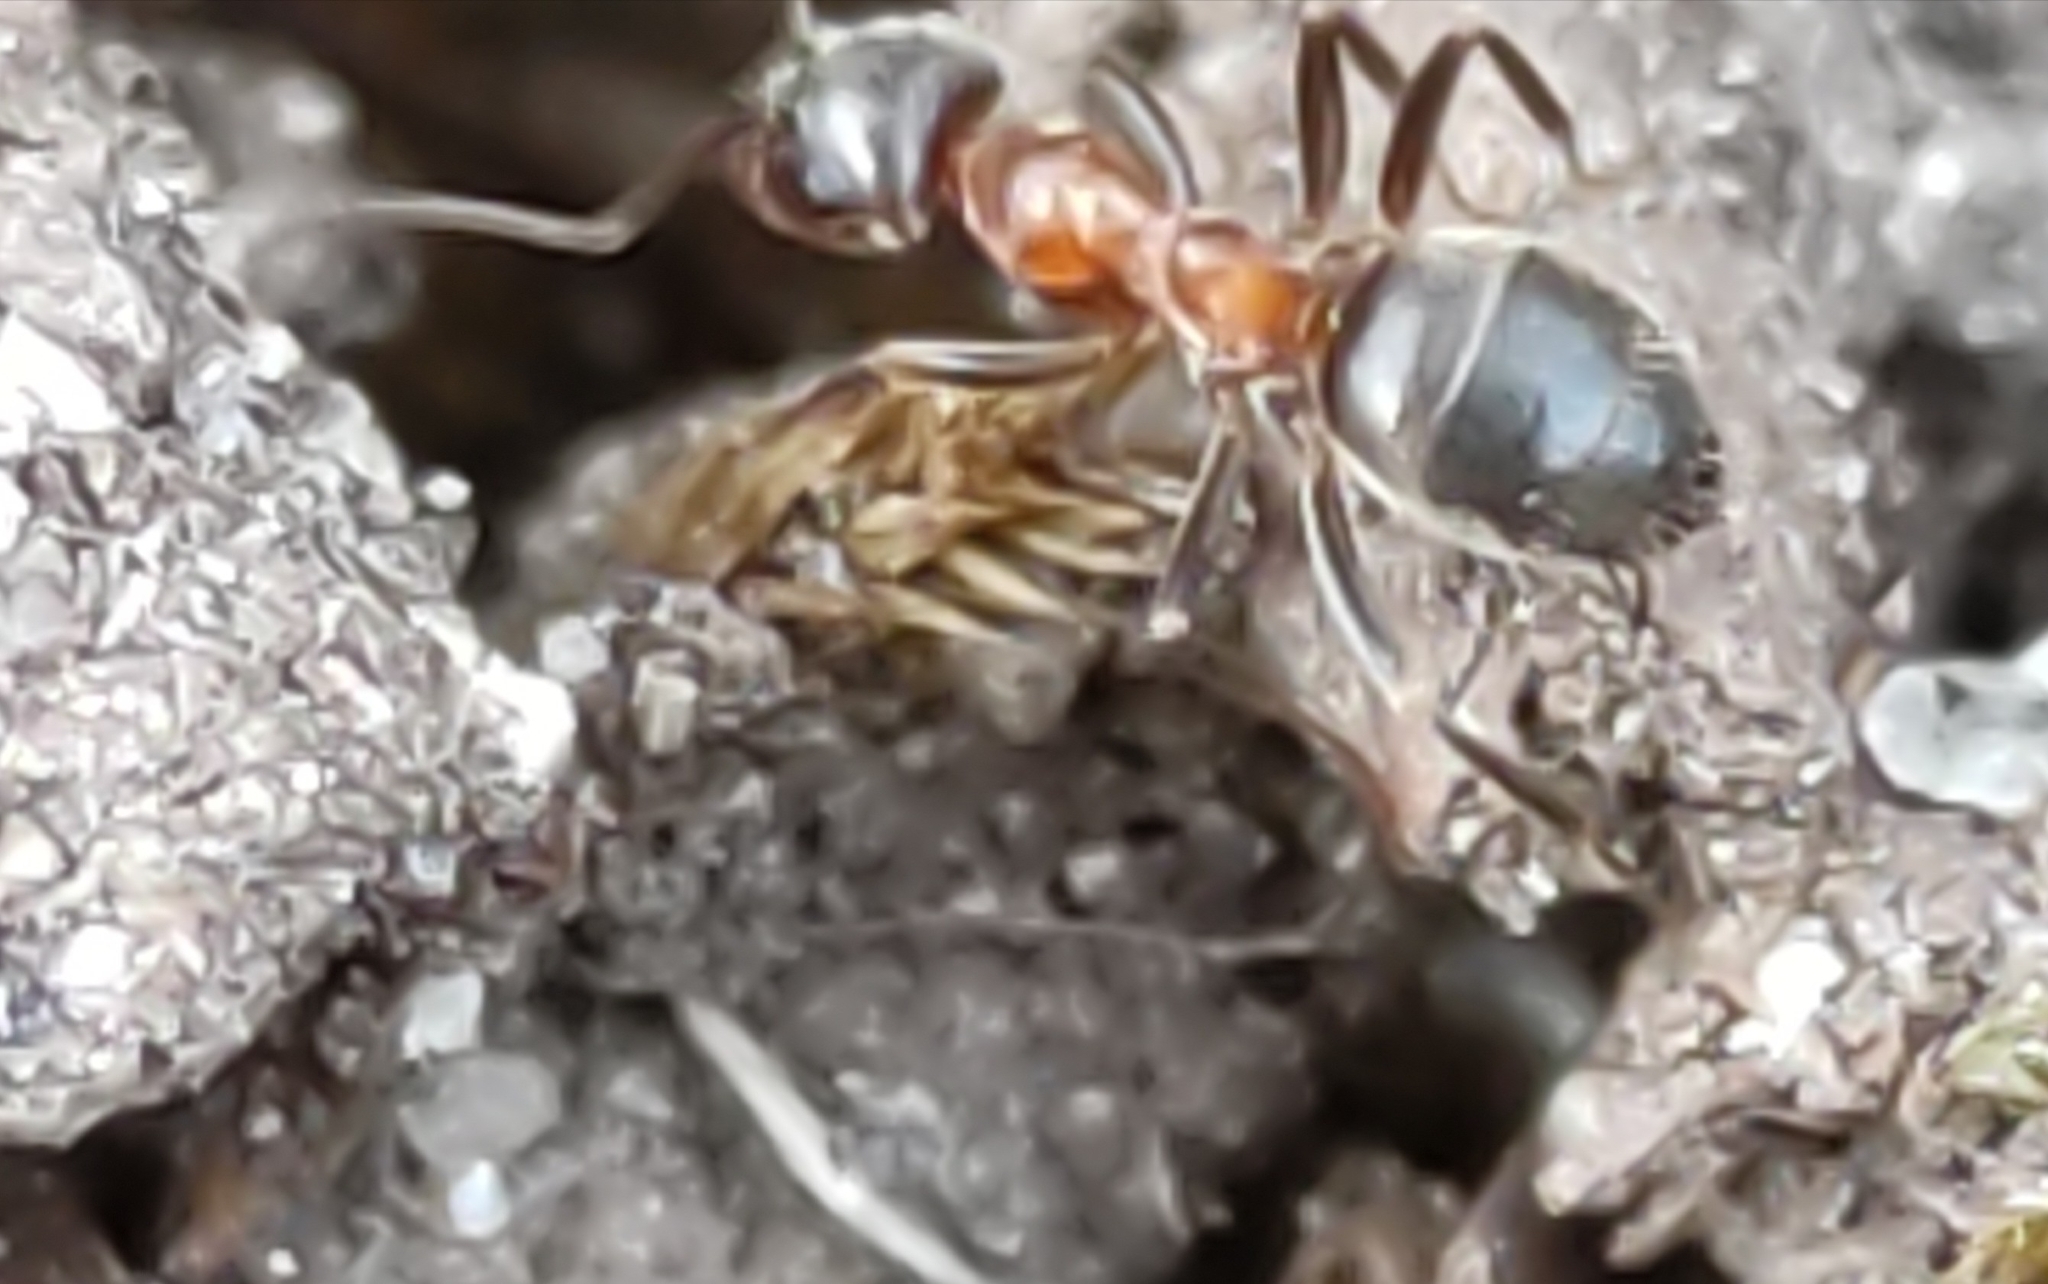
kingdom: Animalia
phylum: Arthropoda
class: Insecta
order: Hymenoptera
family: Formicidae
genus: Lasius
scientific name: Lasius emarginatus
